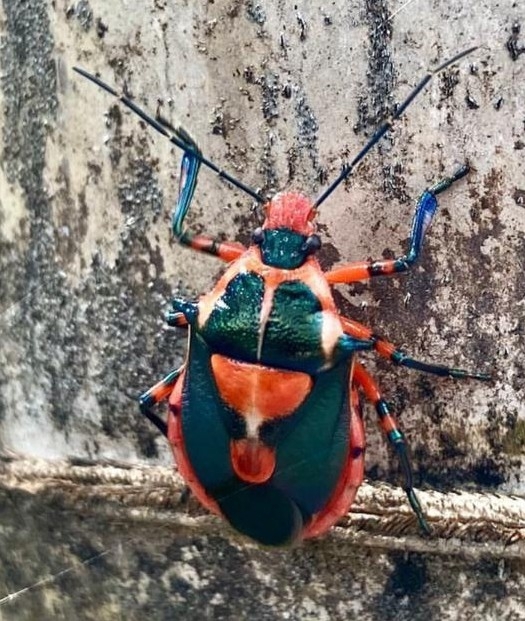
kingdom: Animalia
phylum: Arthropoda
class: Insecta
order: Hemiptera
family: Pentatomidae
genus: Euthyrhynchus
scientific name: Euthyrhynchus floridanus
